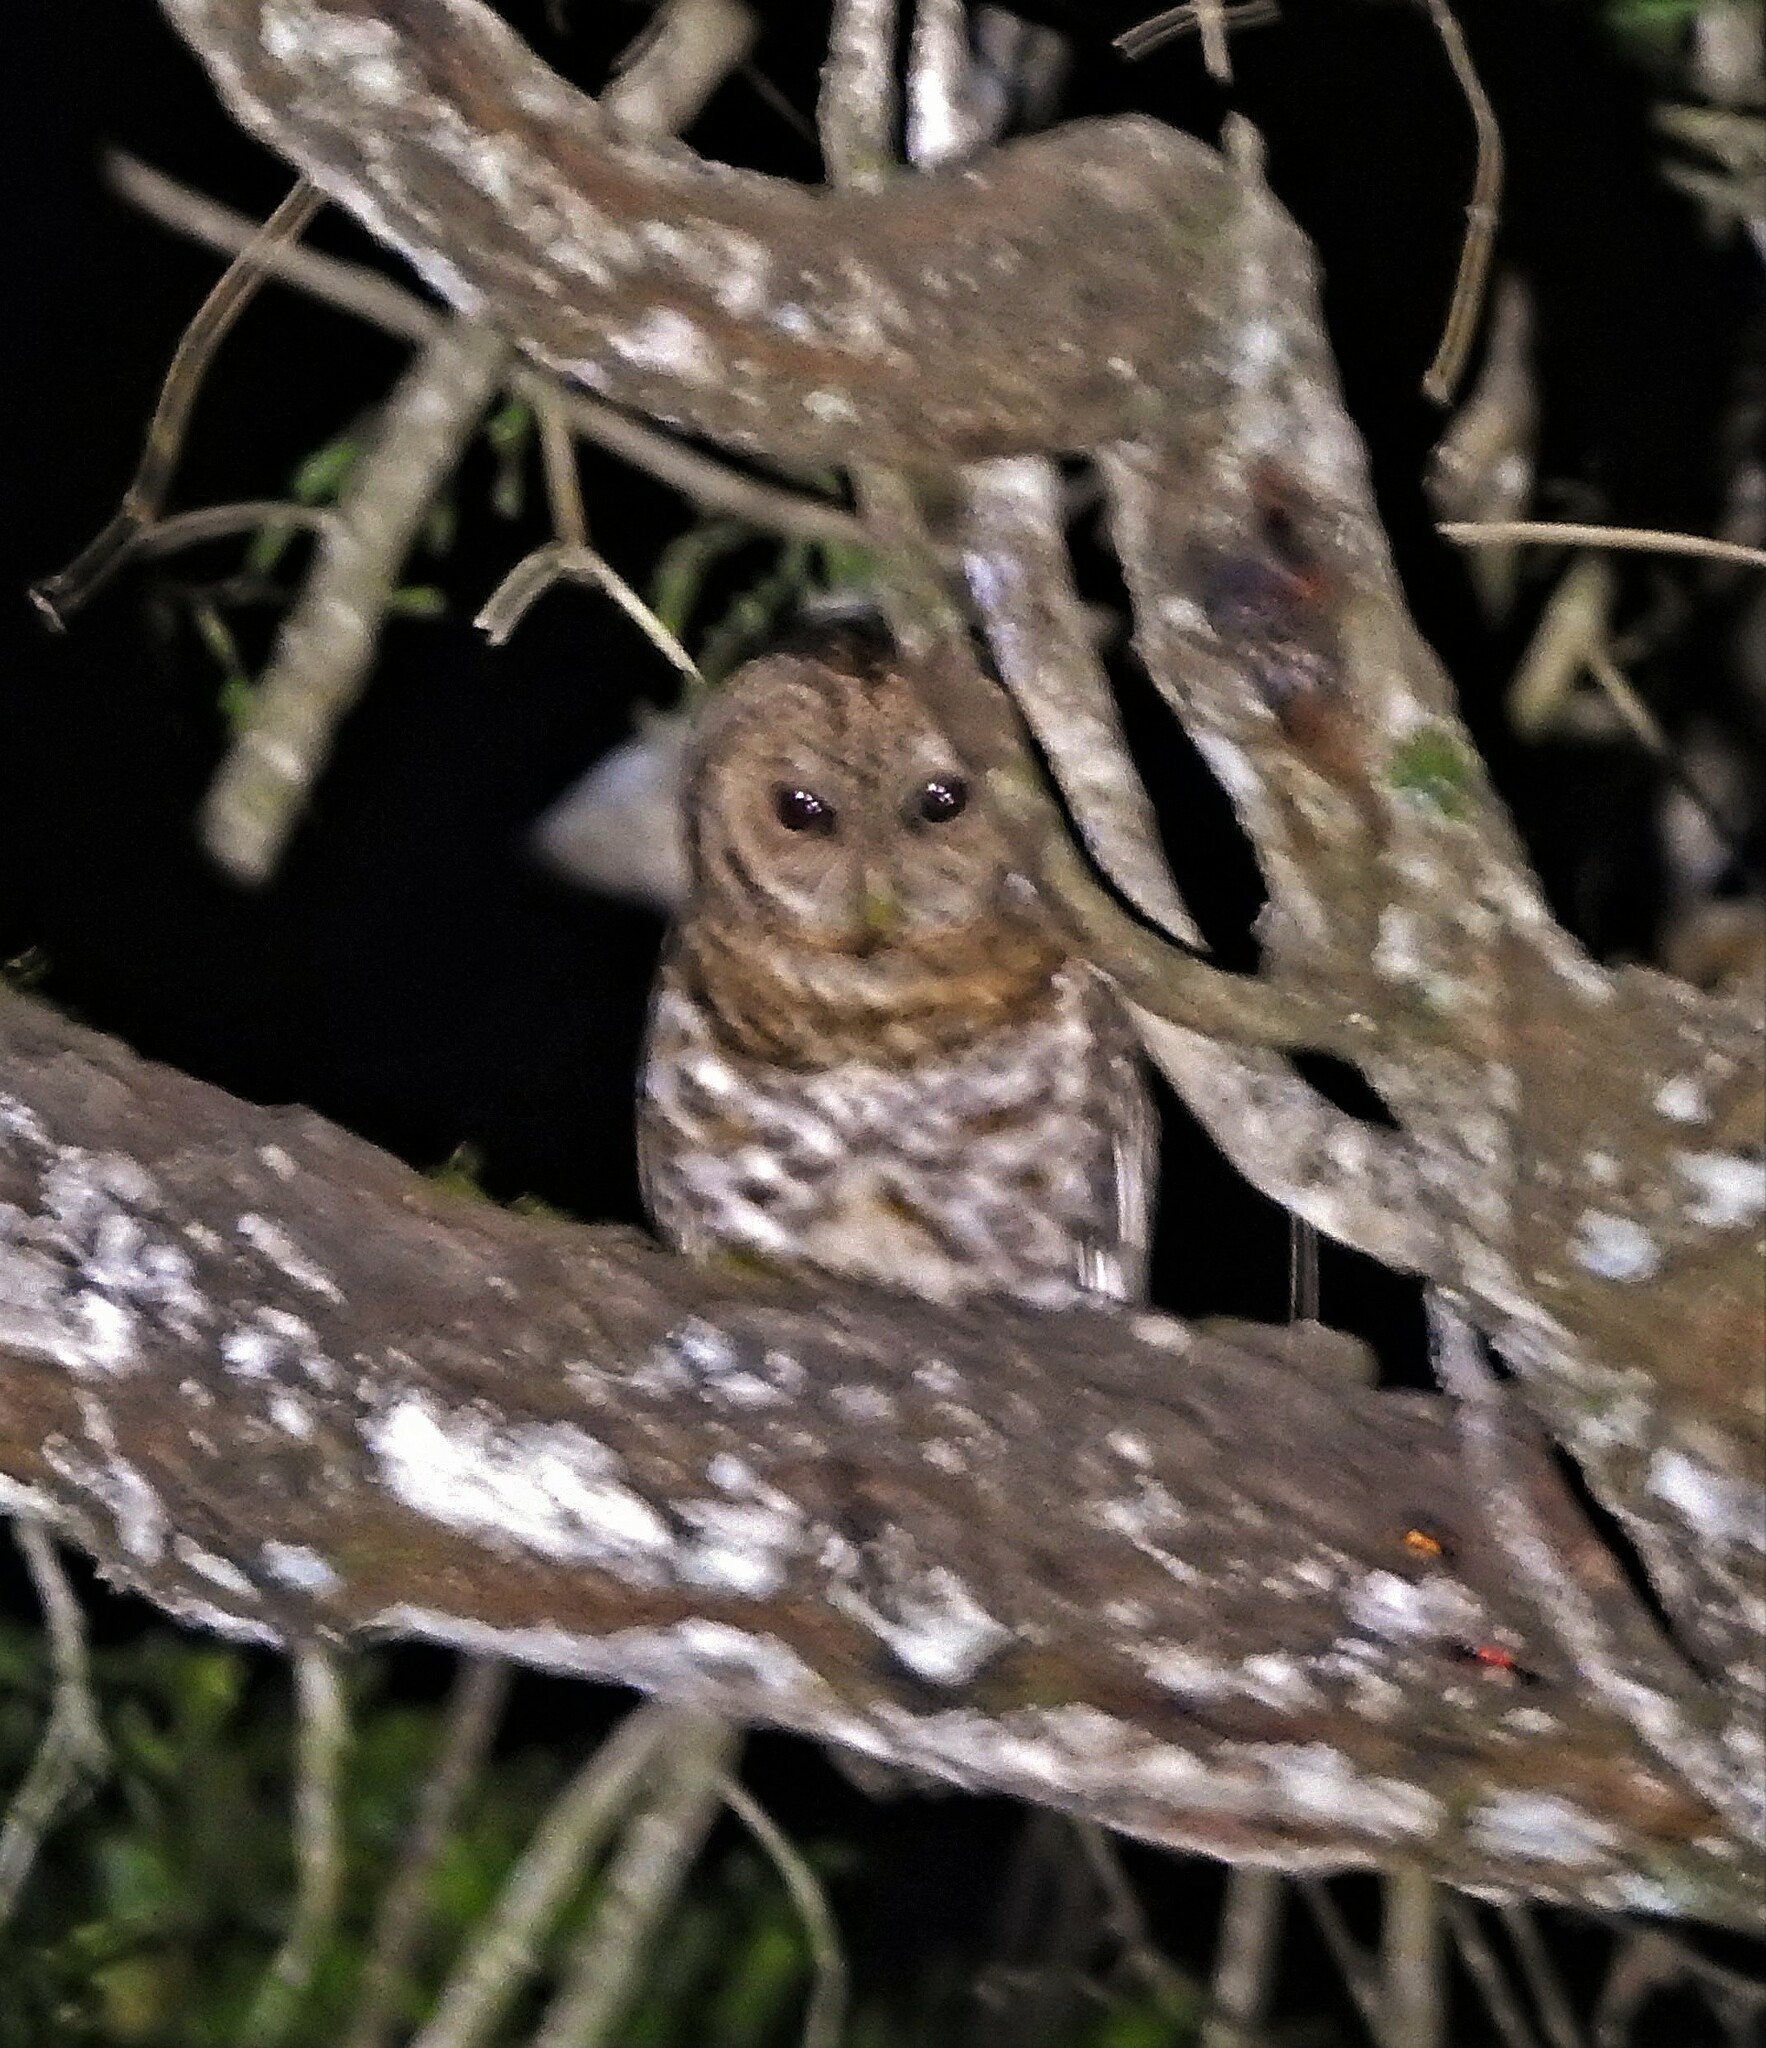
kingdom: Animalia
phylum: Chordata
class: Aves
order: Strigiformes
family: Strigidae
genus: Strix
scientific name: Strix hylophila
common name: Rusty-barred owl
